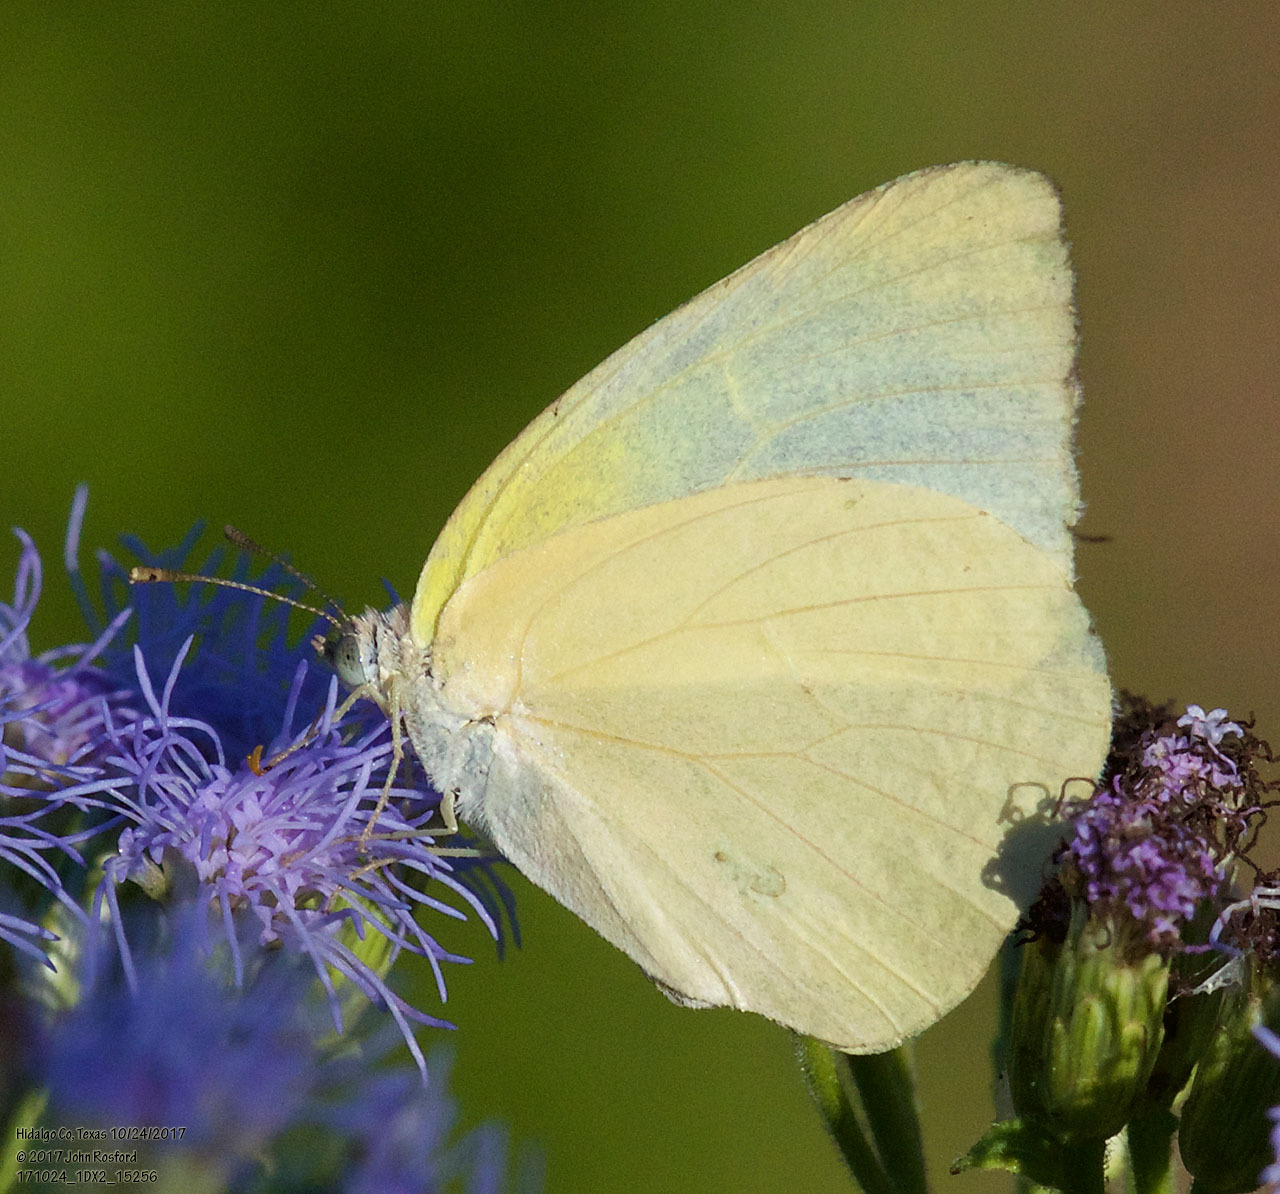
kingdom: Animalia
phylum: Arthropoda
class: Insecta
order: Lepidoptera
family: Pieridae
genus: Kricogonia
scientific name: Kricogonia lyside
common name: Guayacan sulphur,
